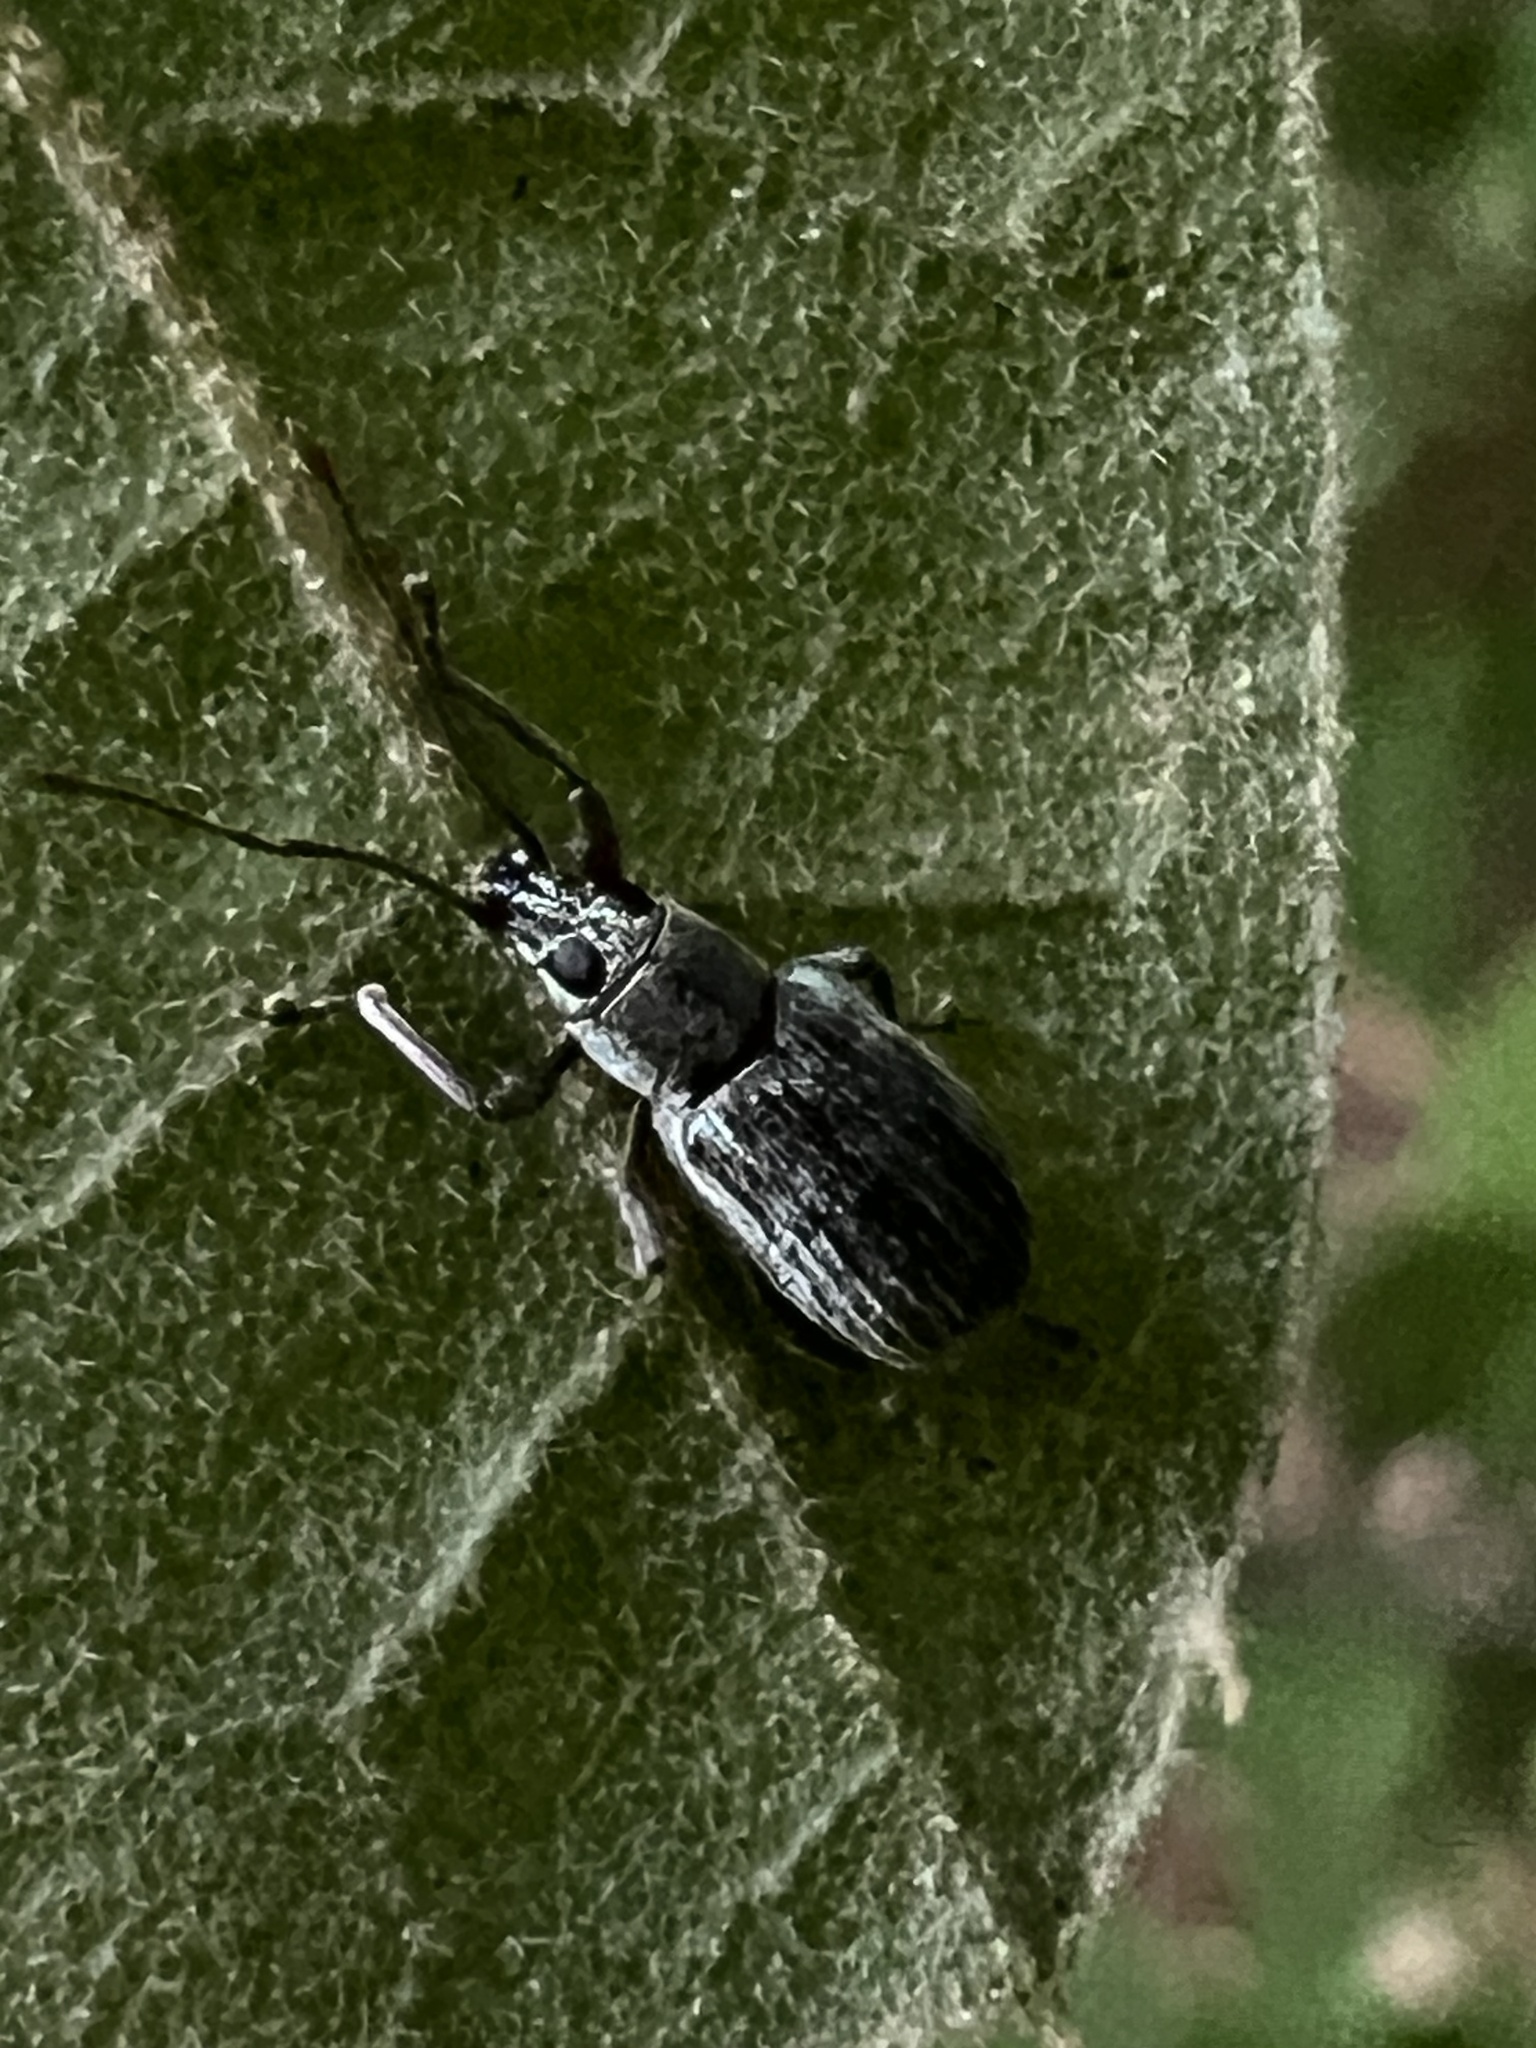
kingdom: Animalia
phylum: Arthropoda
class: Insecta
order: Coleoptera
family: Curculionidae
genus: Cyrtepistomus
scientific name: Cyrtepistomus castaneus
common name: Weevil
